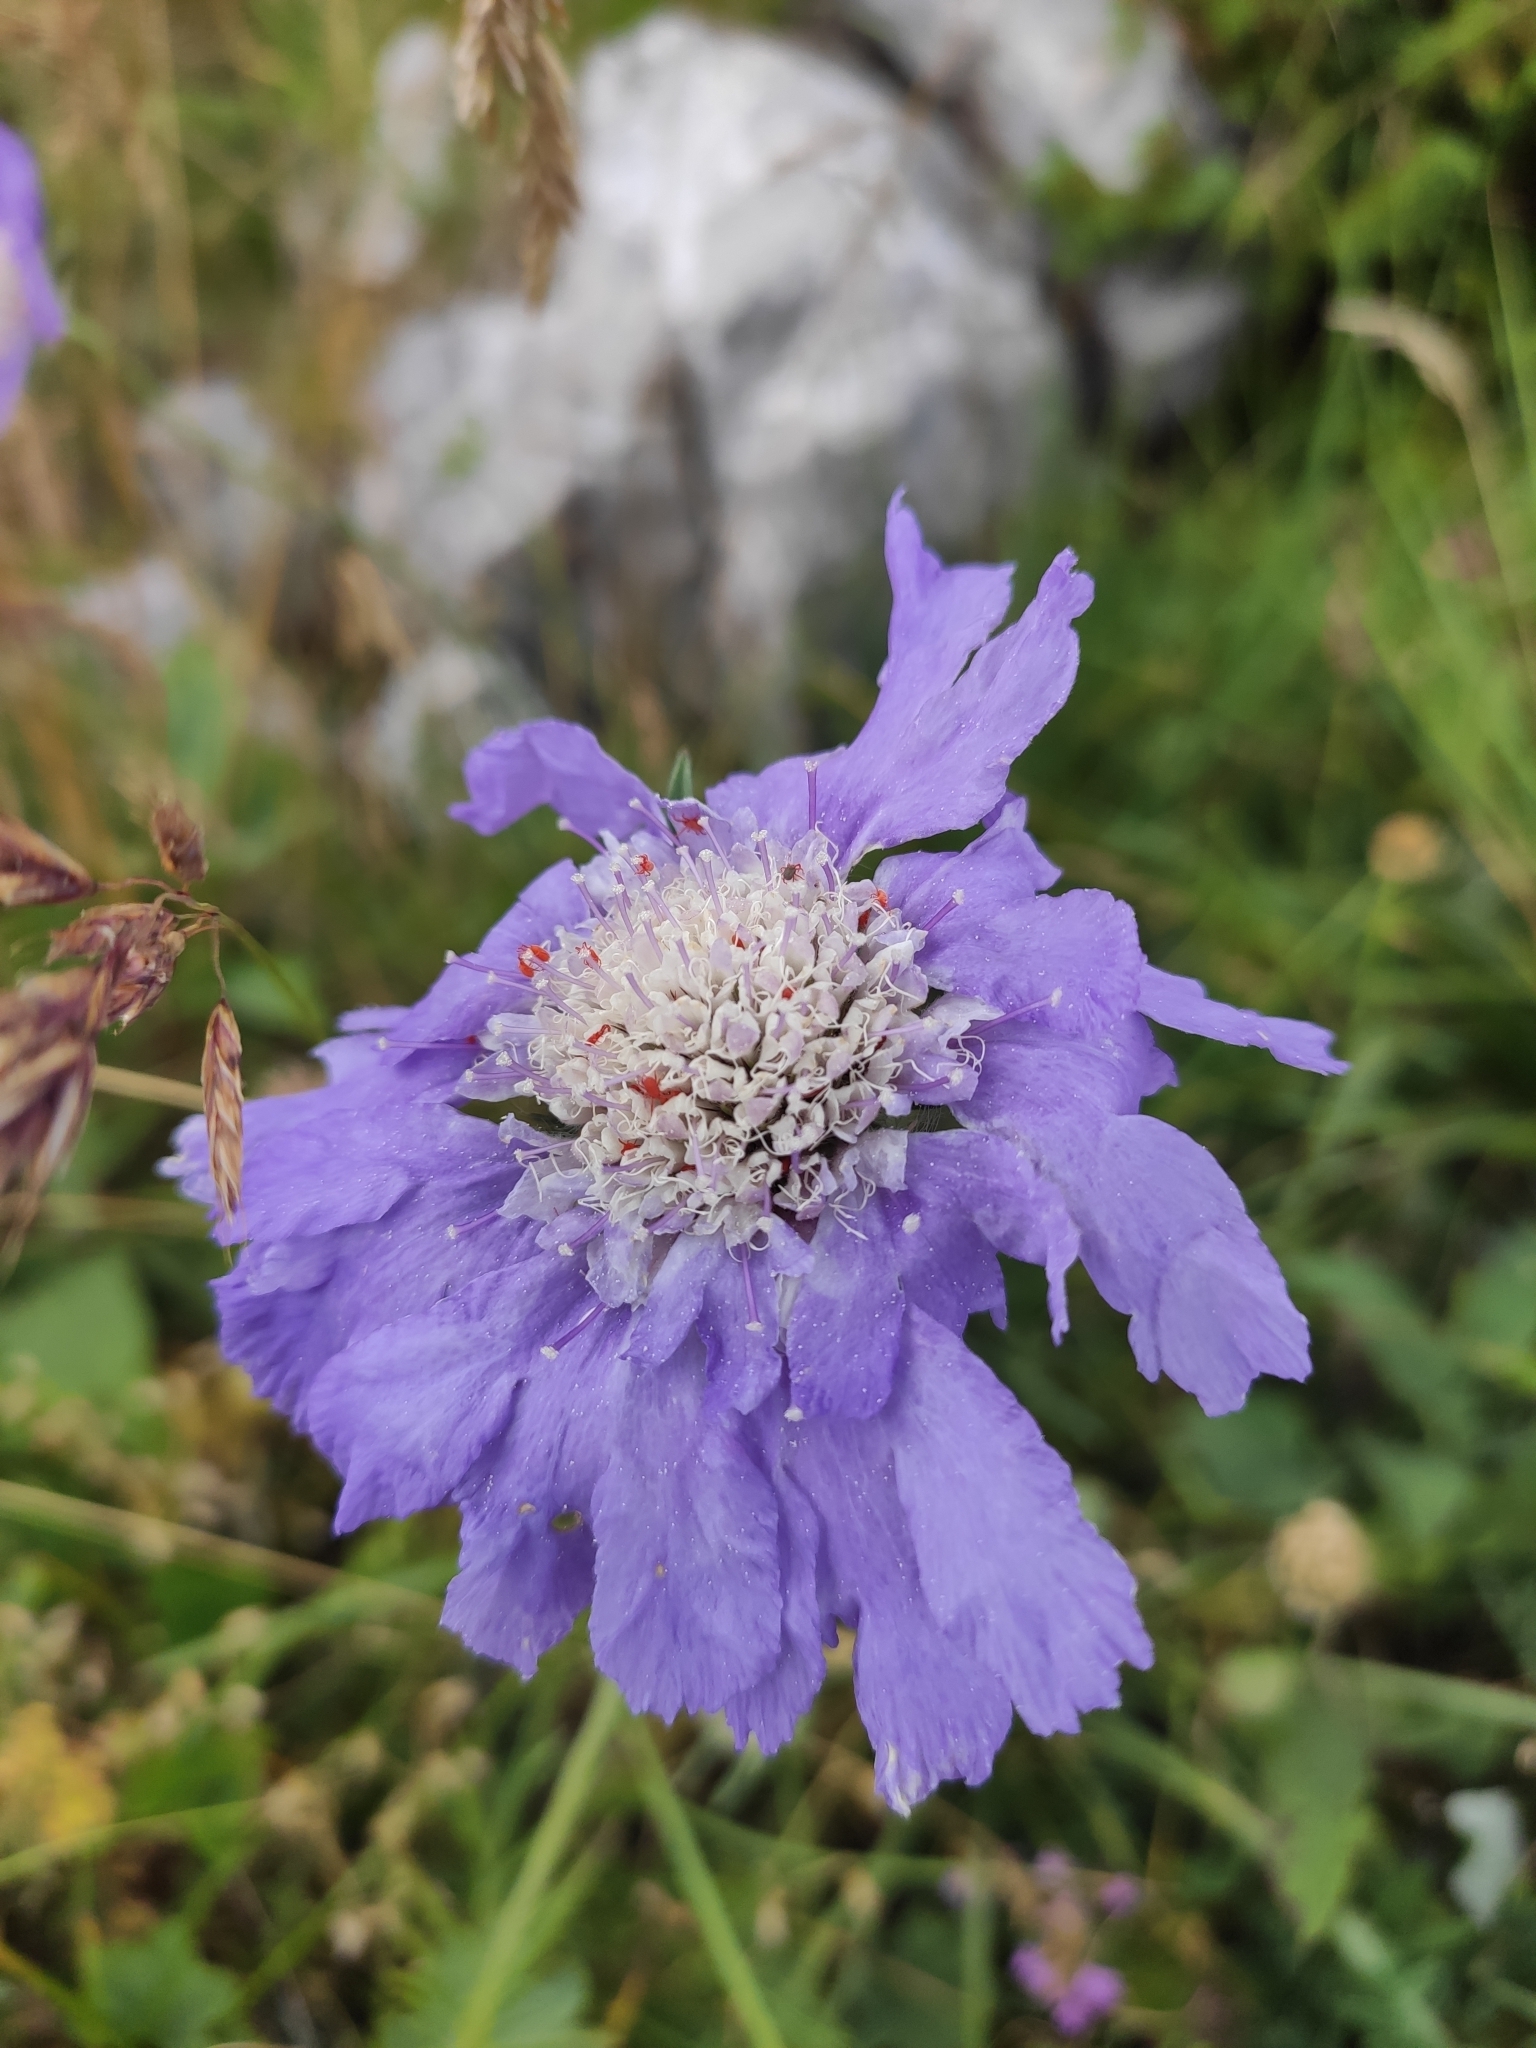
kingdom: Plantae
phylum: Tracheophyta
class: Magnoliopsida
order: Dipsacales
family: Caprifoliaceae
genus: Lomelosia
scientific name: Lomelosia caucasica
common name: Pincushion-flower
